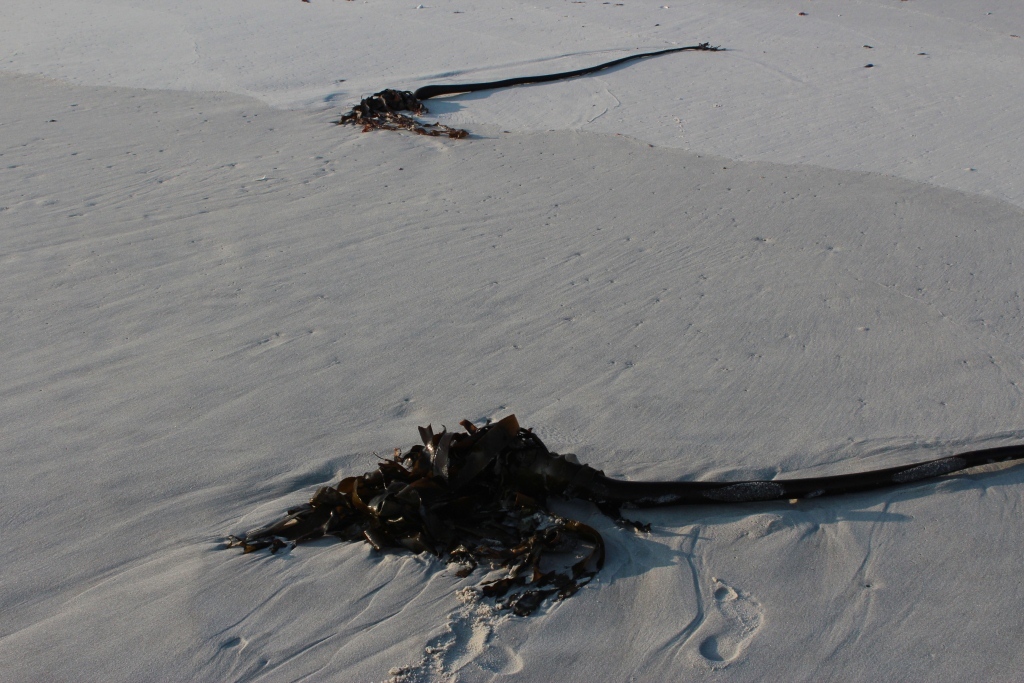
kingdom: Chromista
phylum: Ochrophyta
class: Phaeophyceae
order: Laminariales
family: Lessoniaceae
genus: Ecklonia
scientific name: Ecklonia
